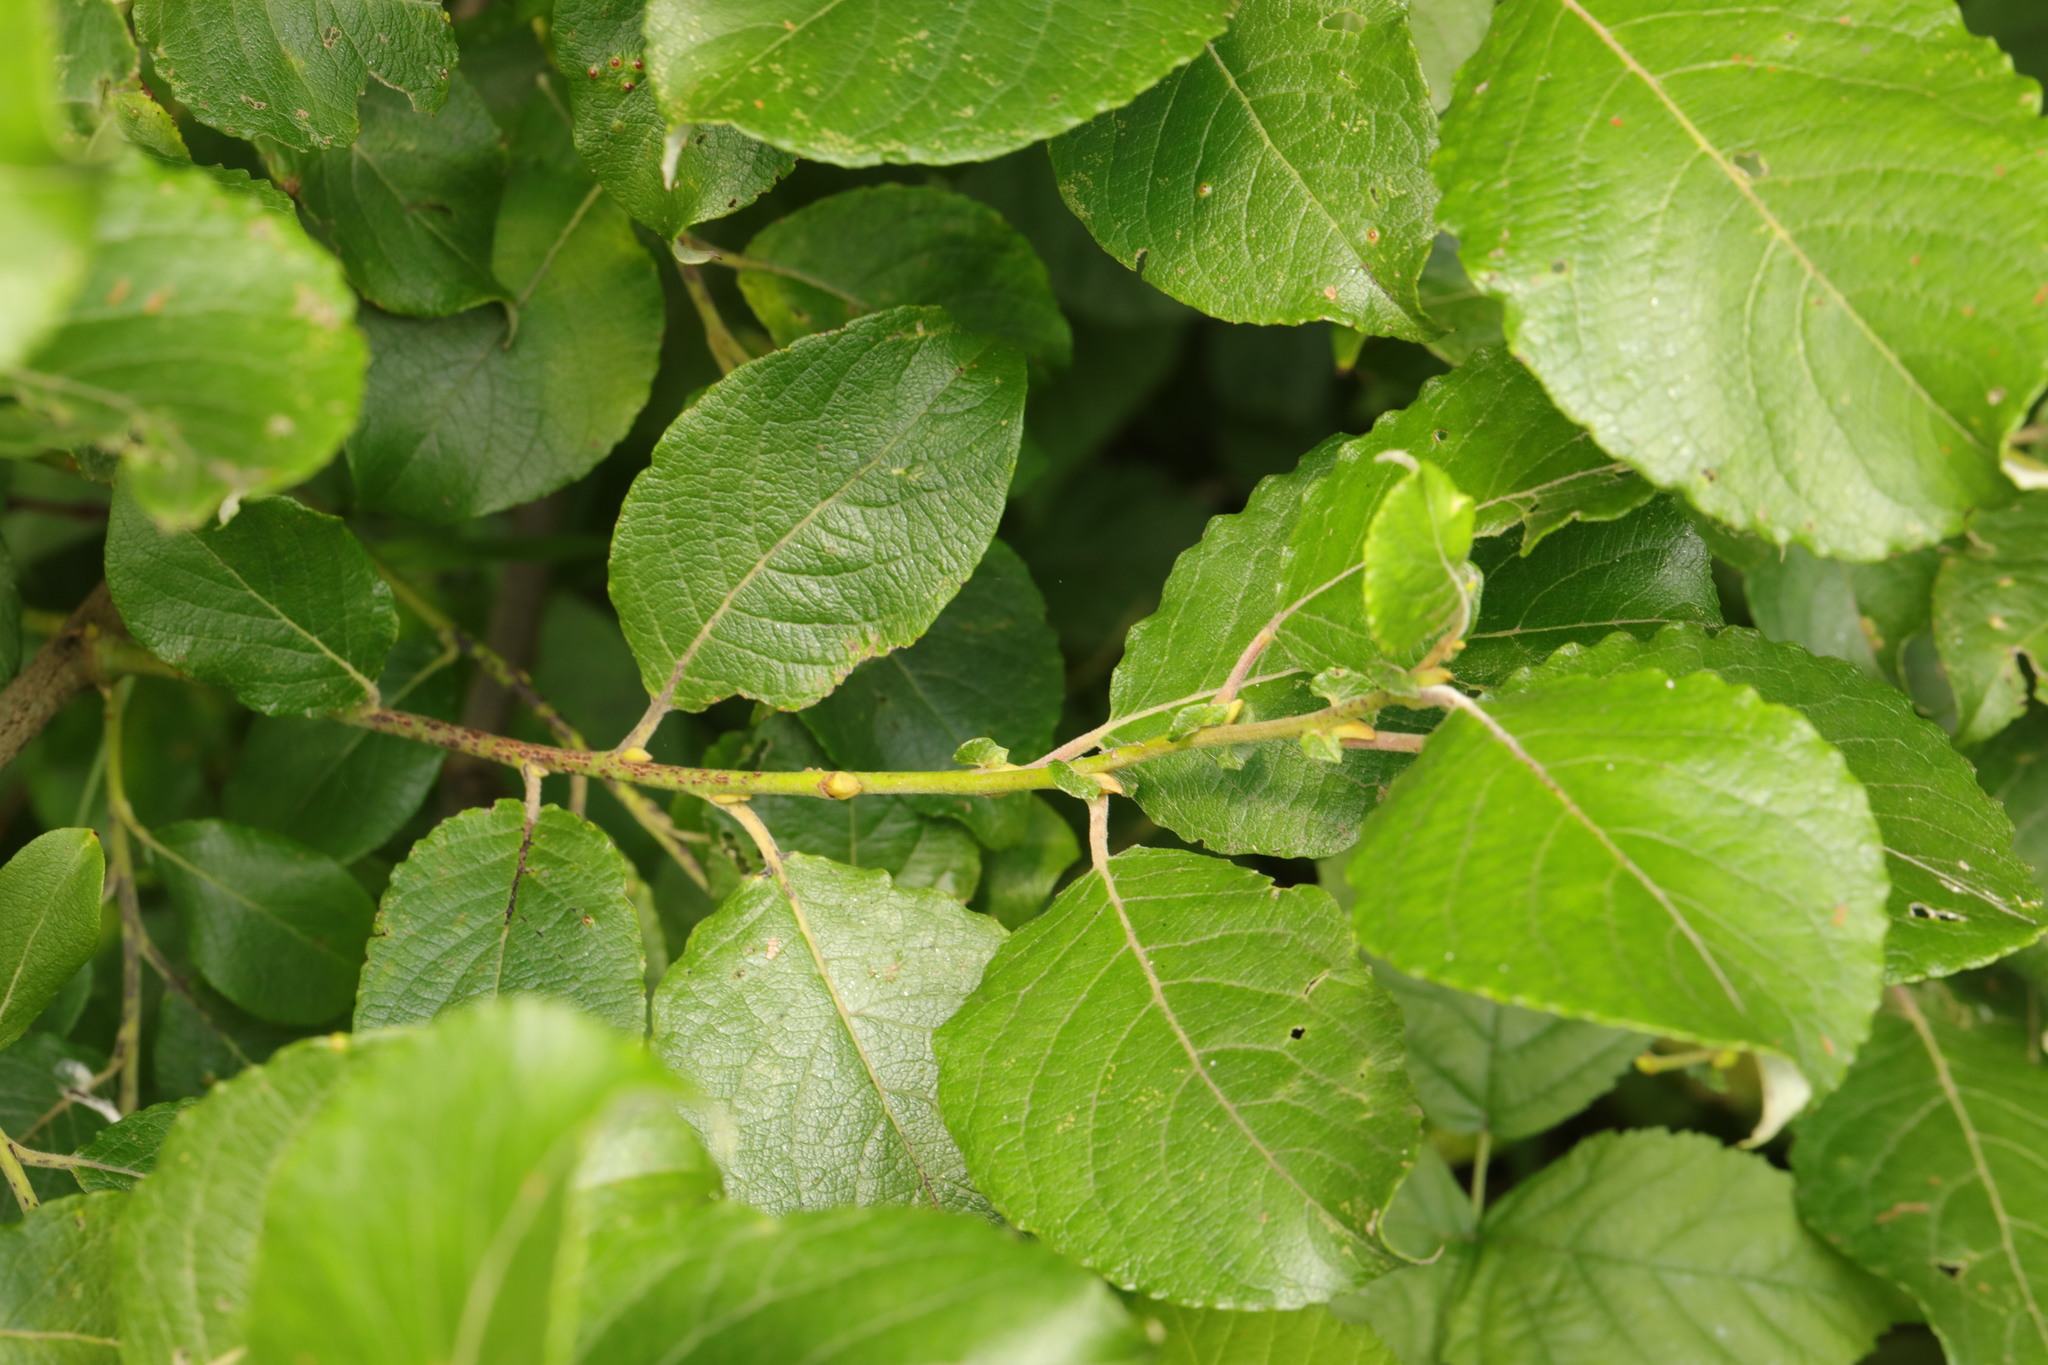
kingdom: Plantae
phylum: Tracheophyta
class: Magnoliopsida
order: Malpighiales
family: Salicaceae
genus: Salix
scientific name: Salix caprea
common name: Goat willow
